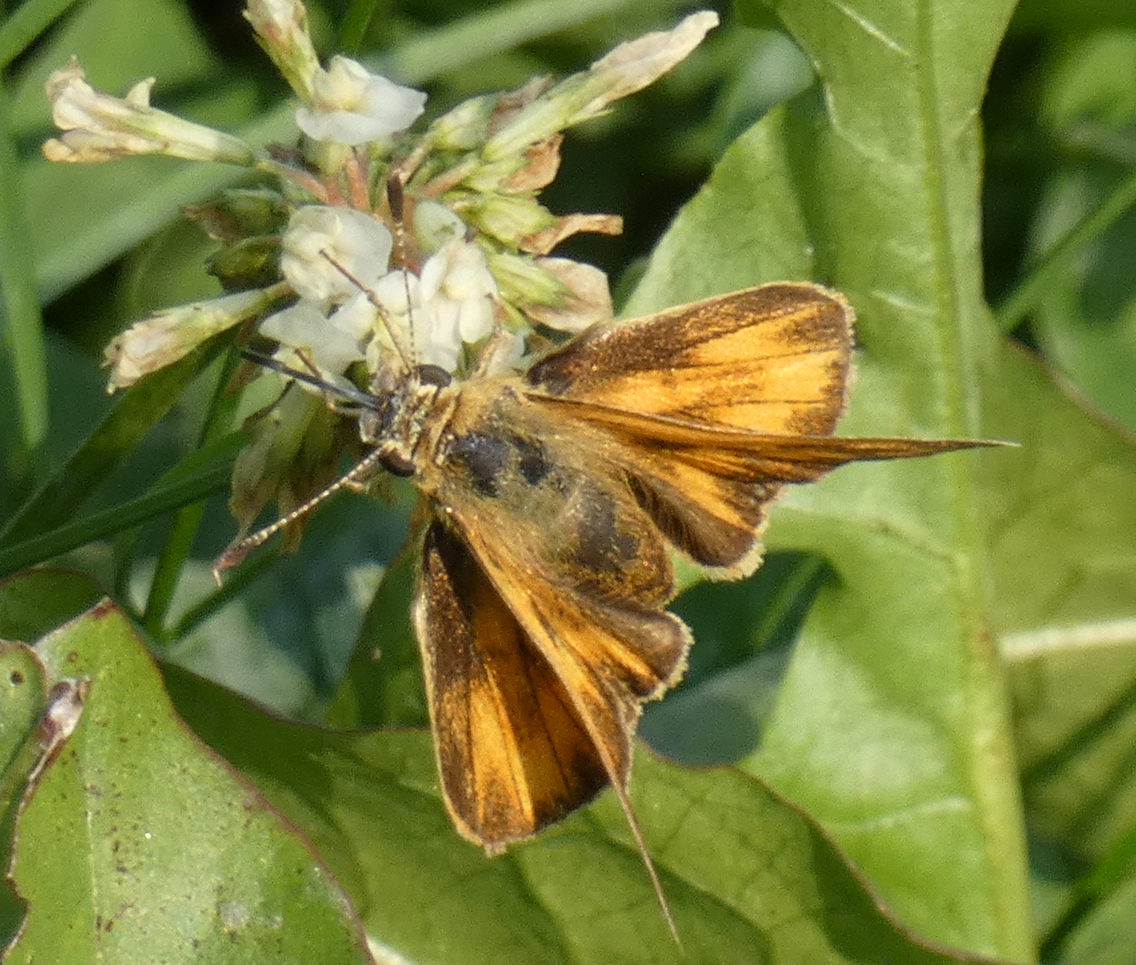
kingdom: Animalia
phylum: Arthropoda
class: Insecta
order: Lepidoptera
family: Hesperiidae
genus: Ochlodes
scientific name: Ochlodes sylvanoides
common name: Woodland skipper
